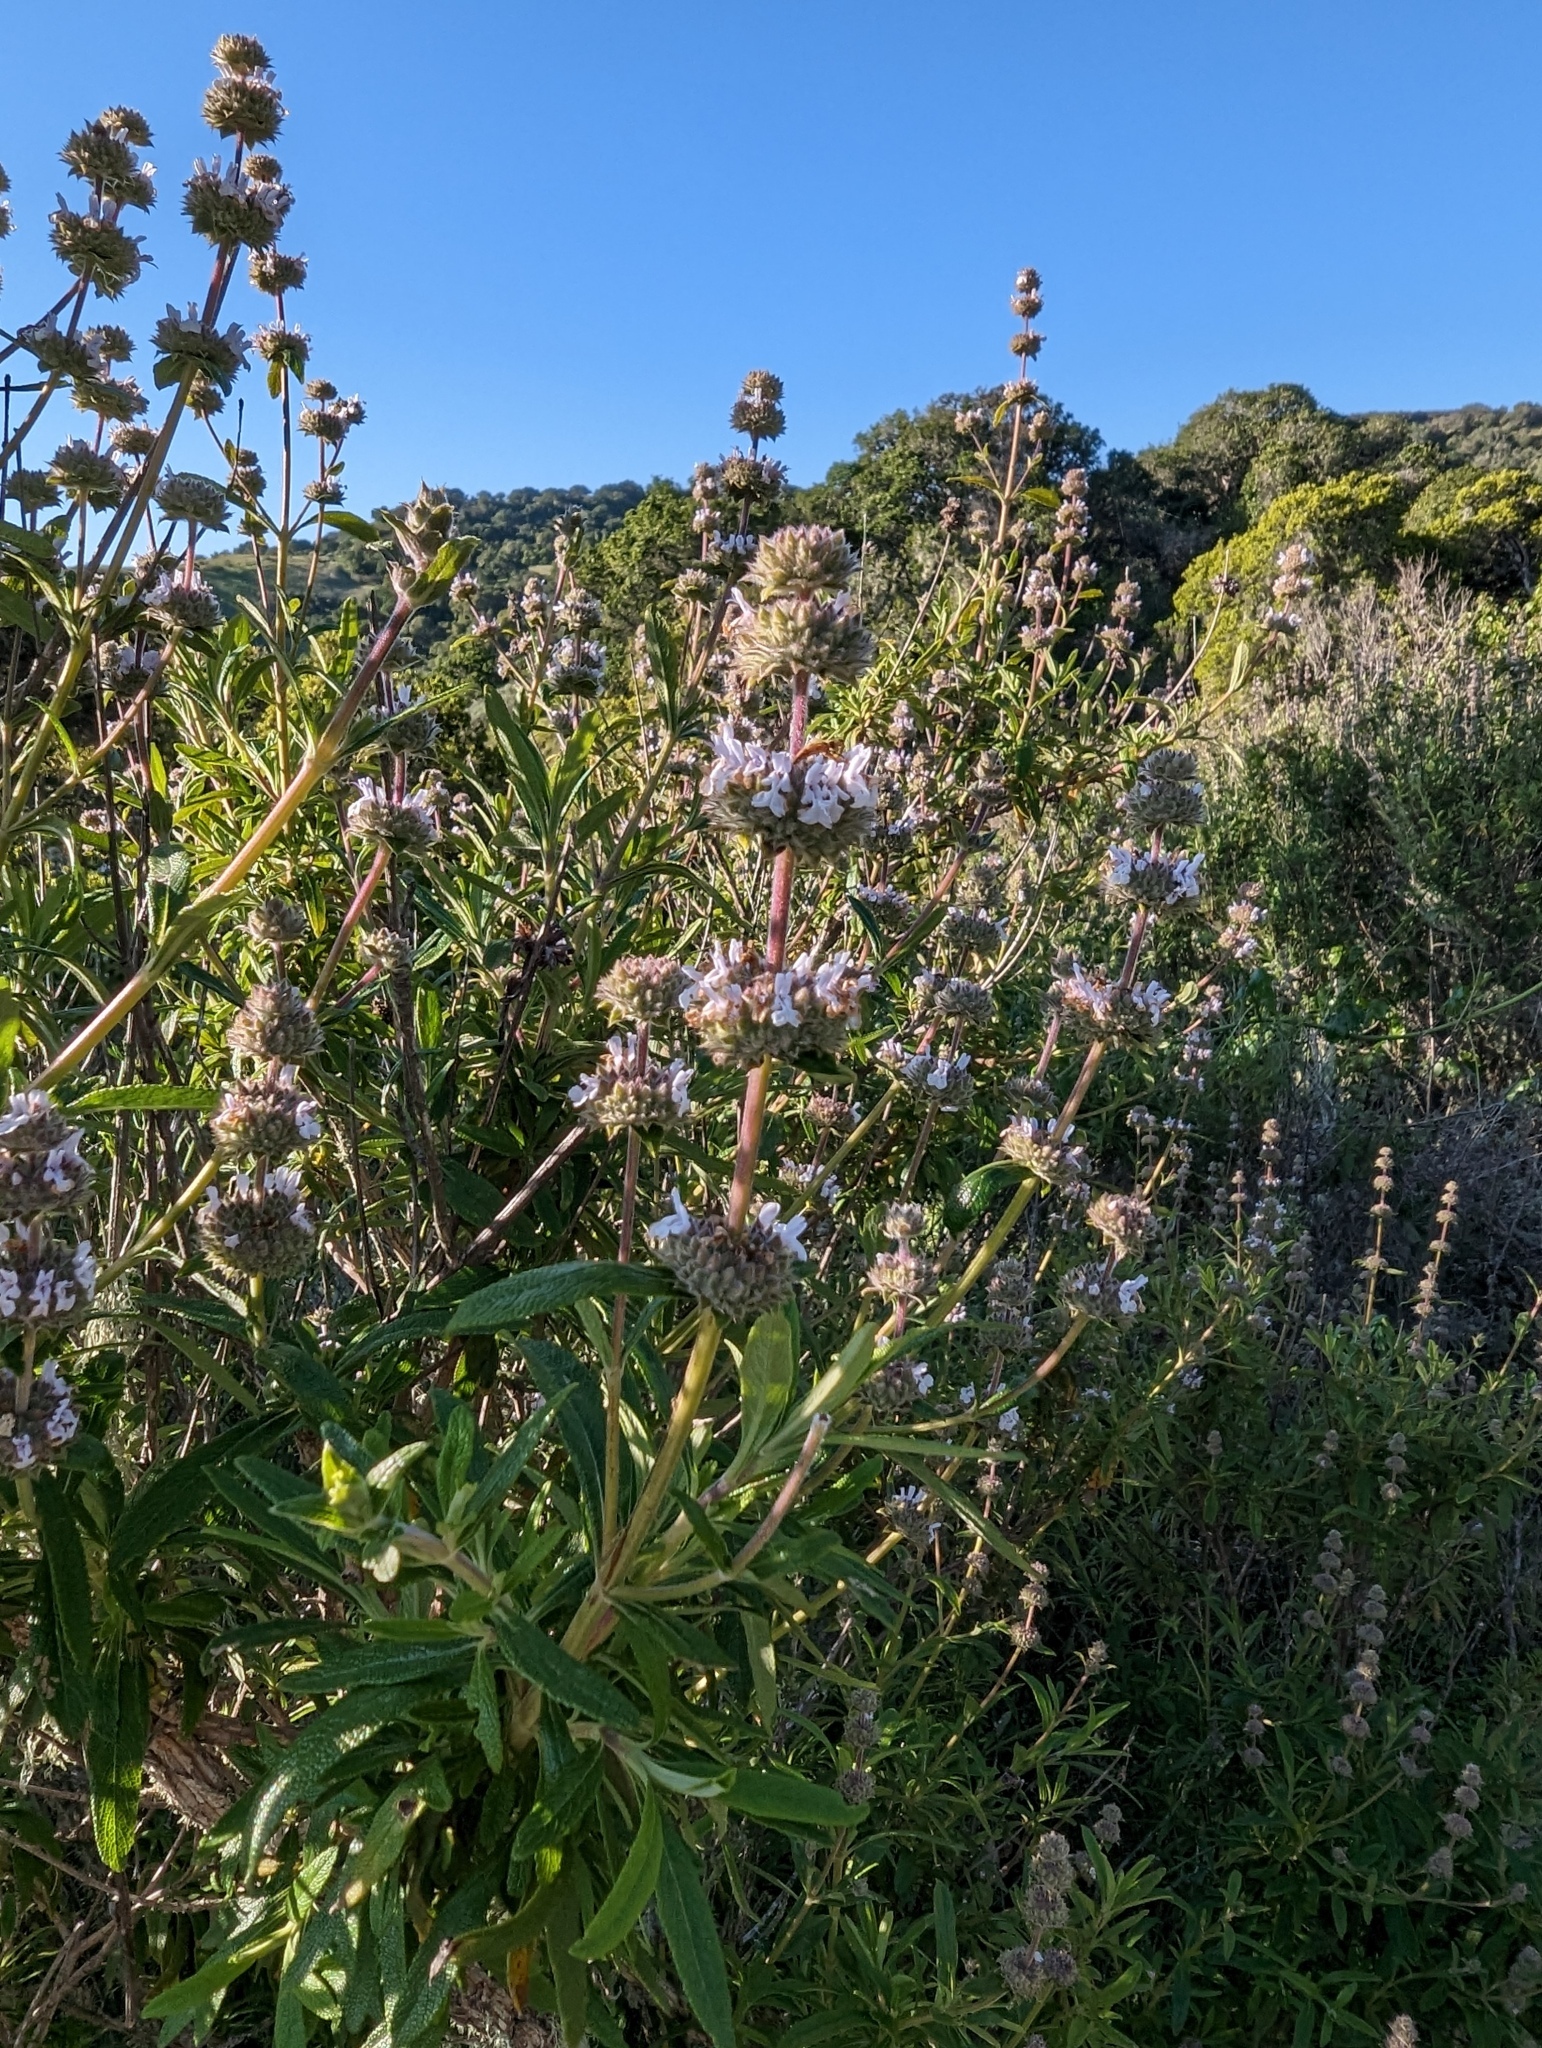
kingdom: Plantae
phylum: Tracheophyta
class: Magnoliopsida
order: Lamiales
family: Lamiaceae
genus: Salvia
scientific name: Salvia mellifera
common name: Black sage
